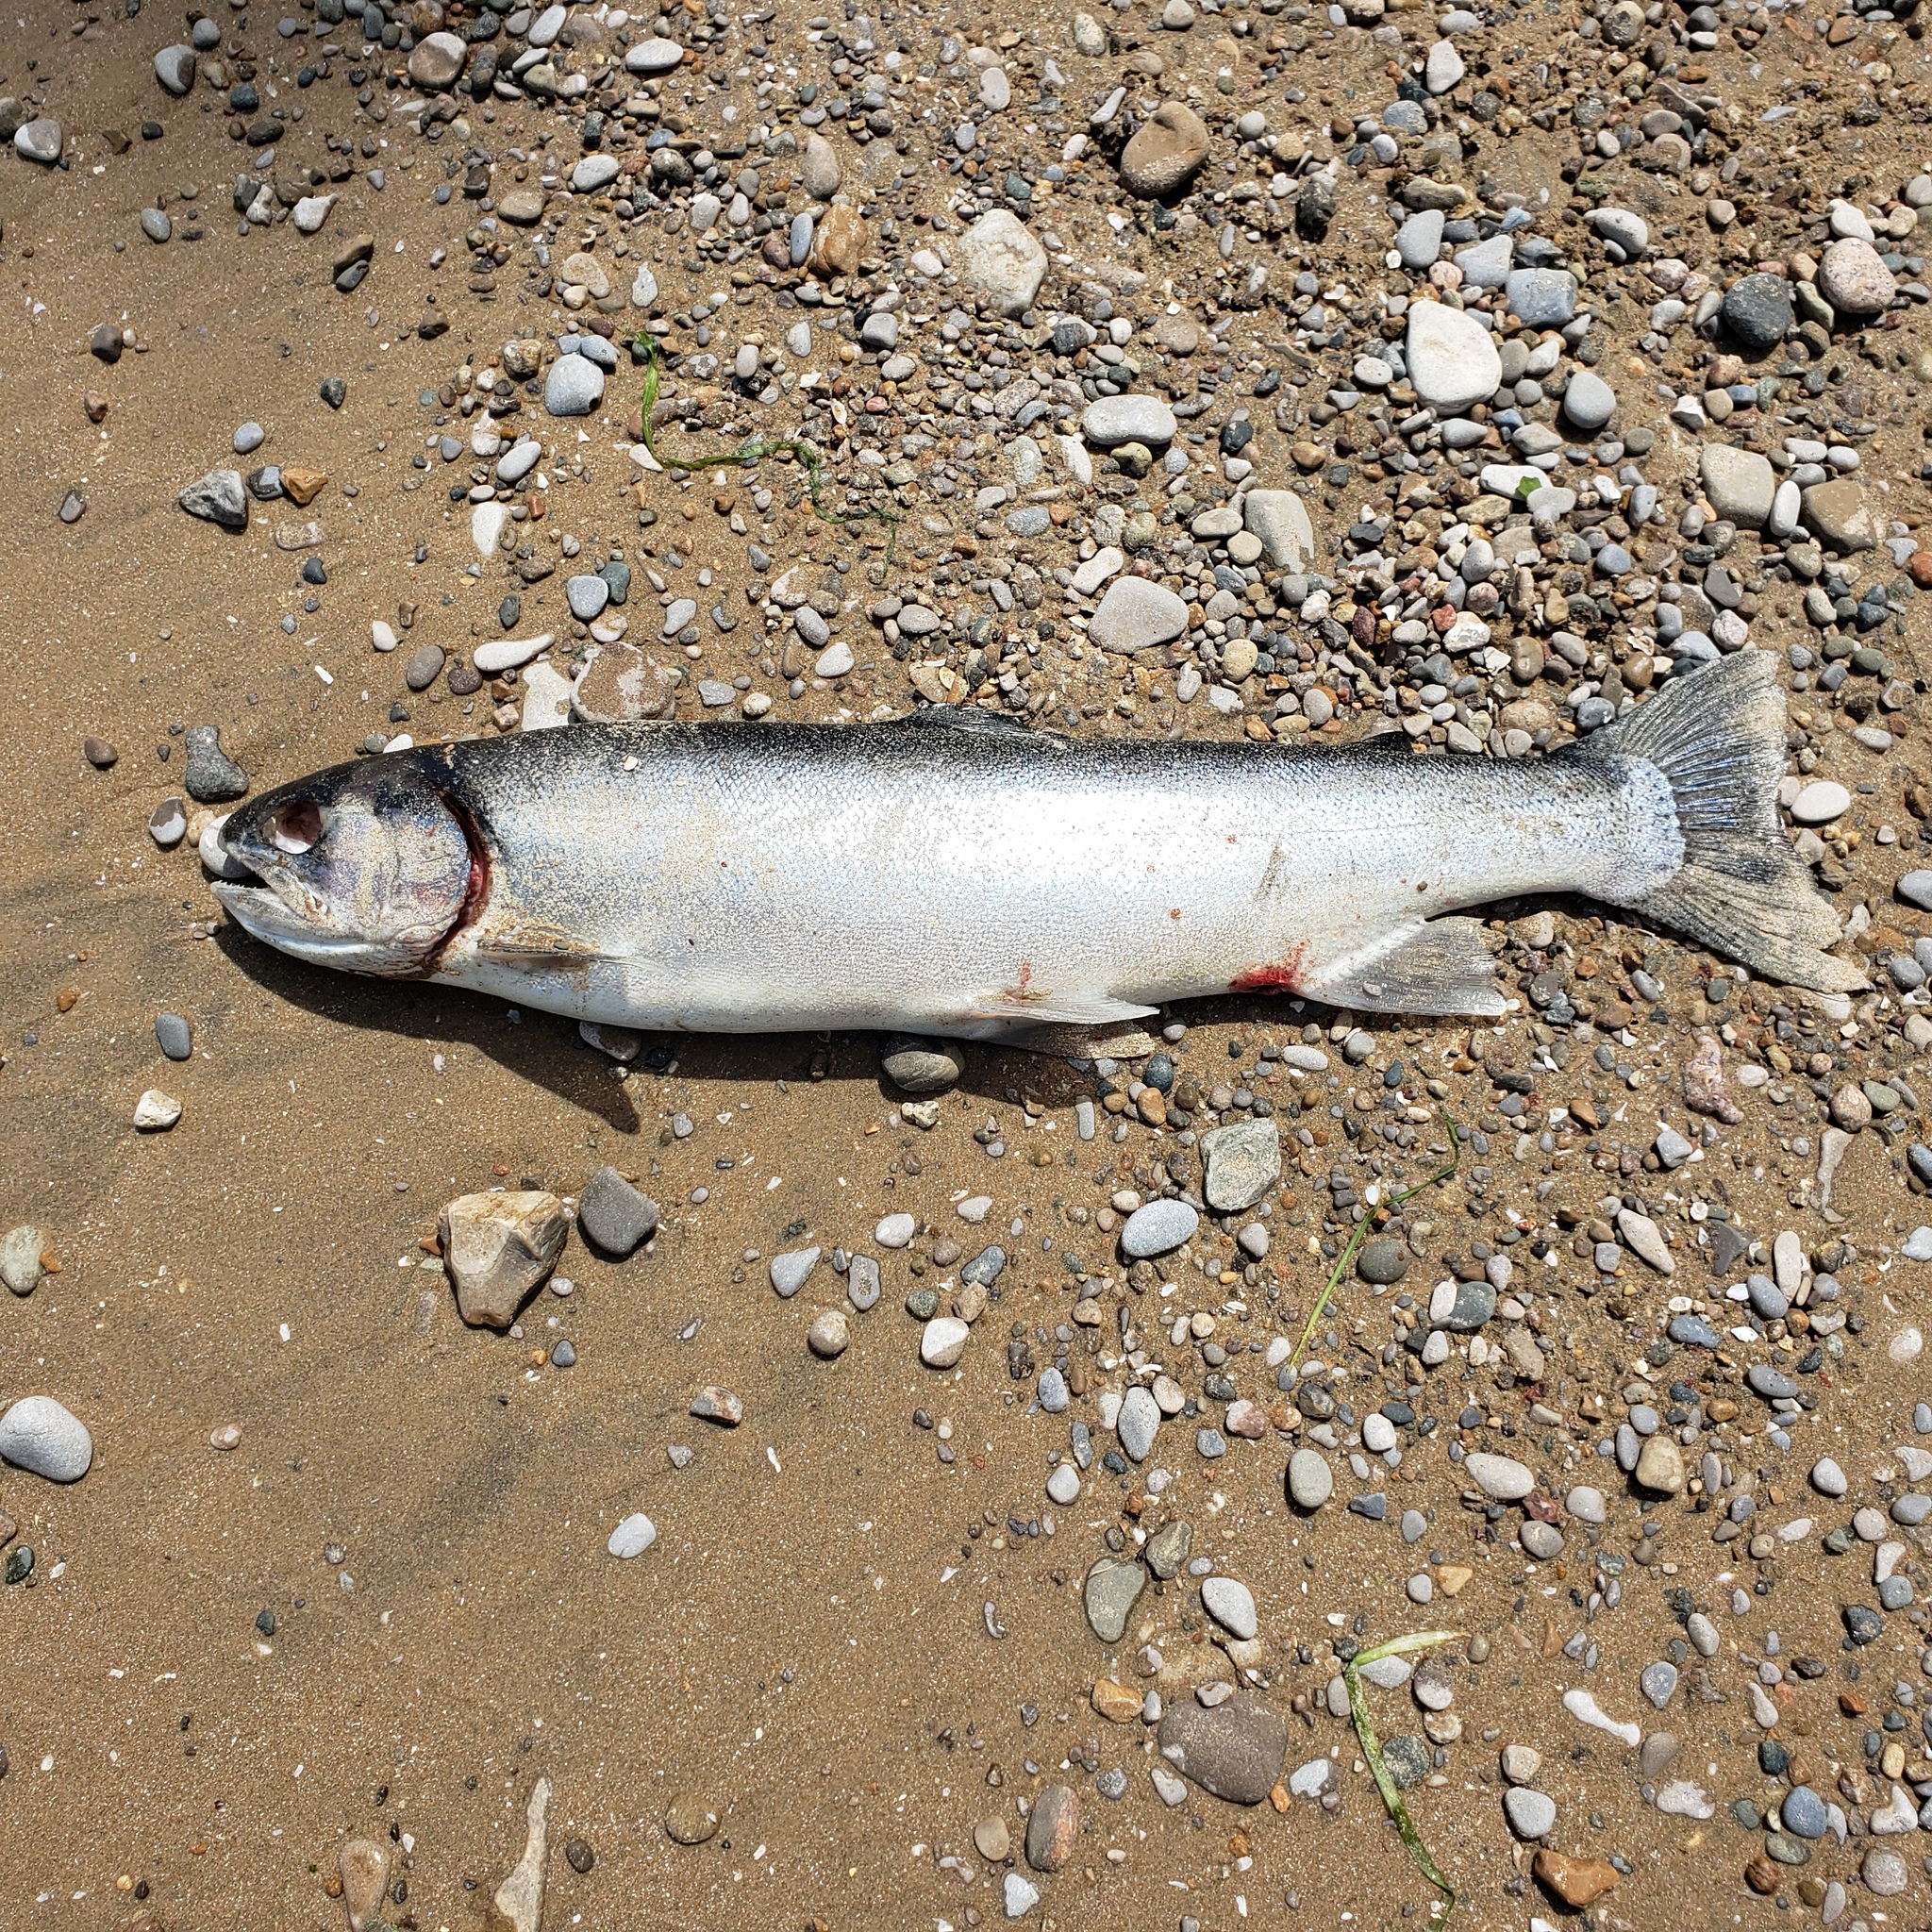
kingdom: Animalia
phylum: Chordata
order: Salmoniformes
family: Salmonidae
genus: Oncorhynchus
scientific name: Oncorhynchus mykiss
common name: Rainbow trout
